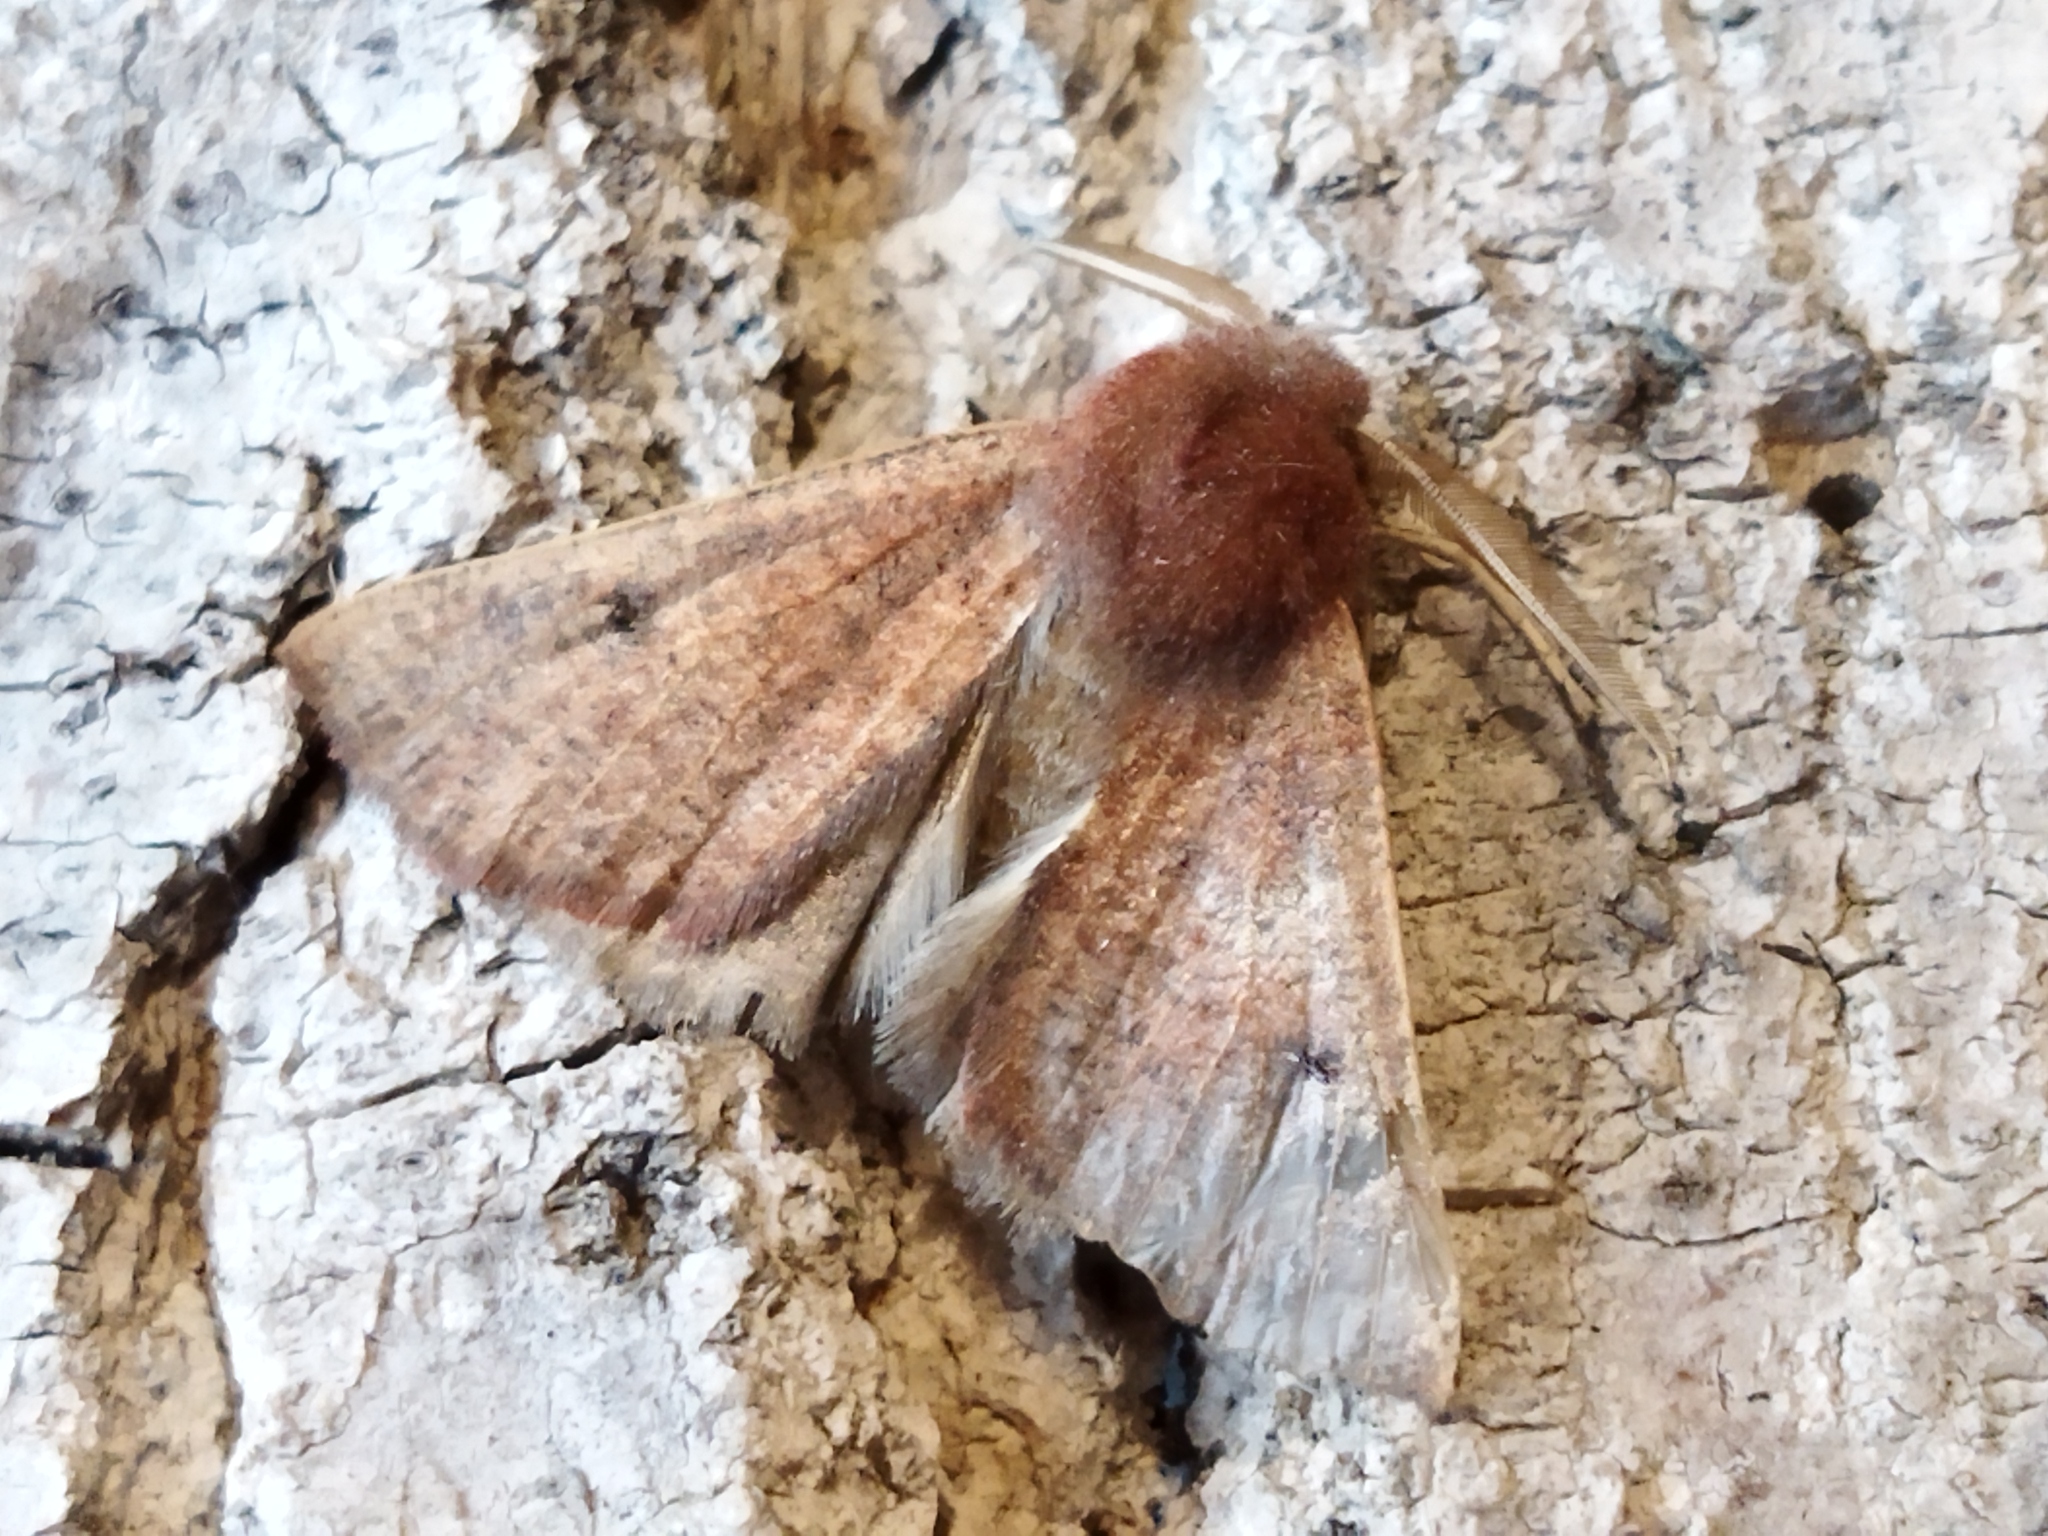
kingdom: Animalia
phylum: Arthropoda
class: Insecta
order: Lepidoptera
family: Geometridae
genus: Dasycorsa
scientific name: Dasycorsa modesta
